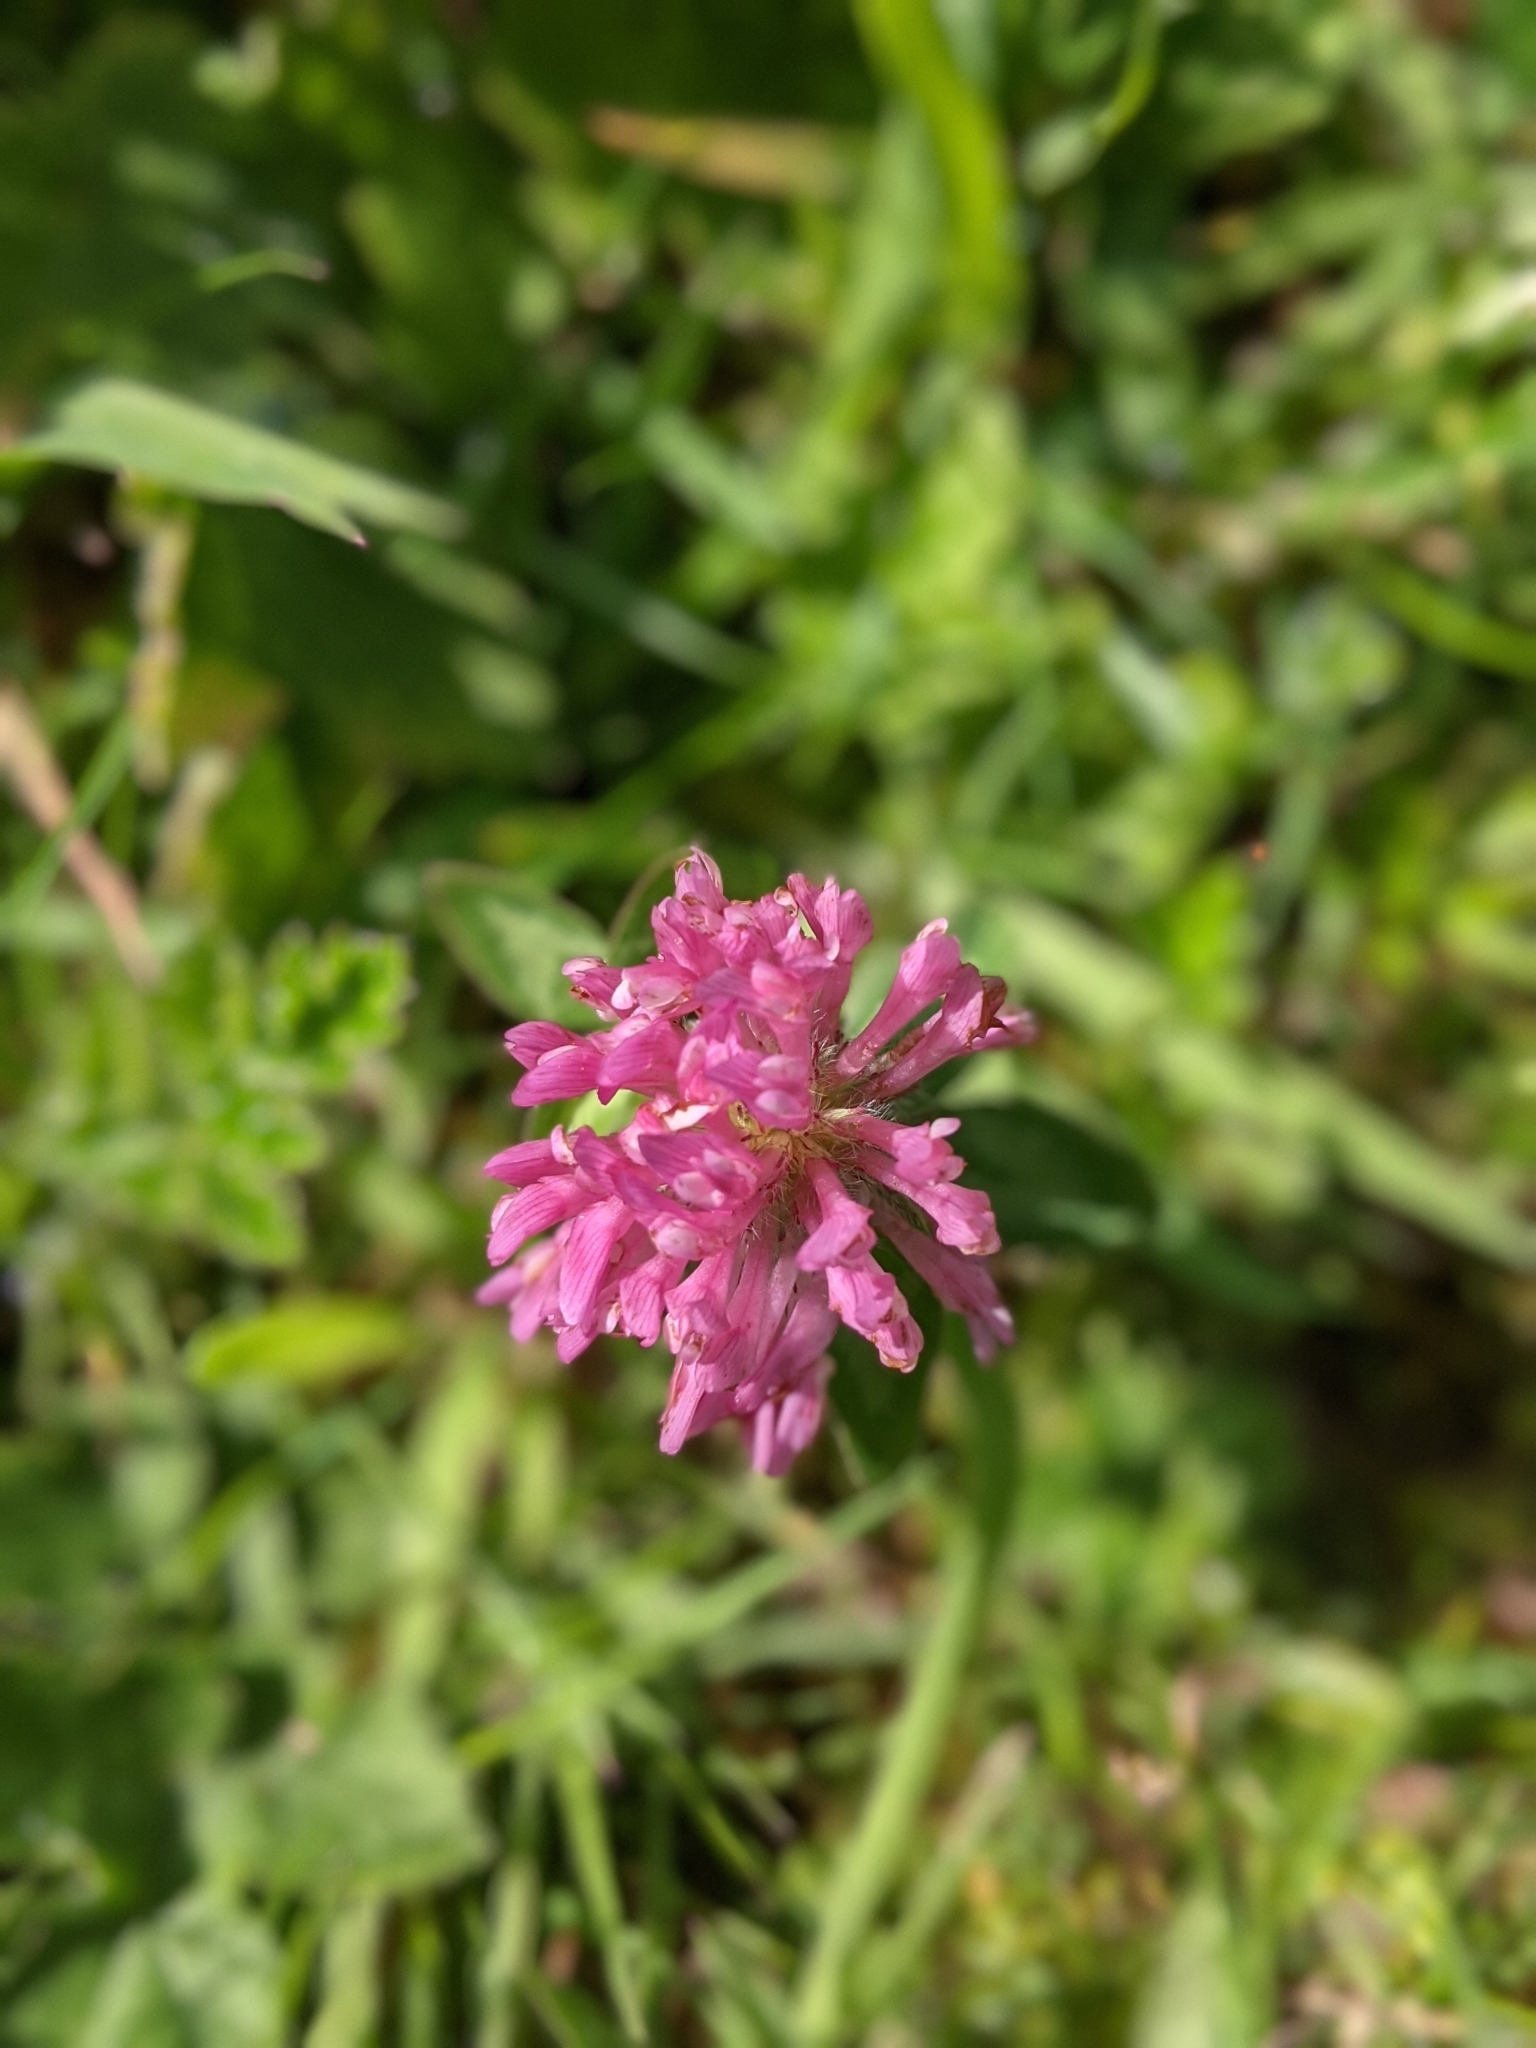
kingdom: Plantae
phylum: Tracheophyta
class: Magnoliopsida
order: Fabales
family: Fabaceae
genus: Trifolium
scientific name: Trifolium pratense
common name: Red clover
